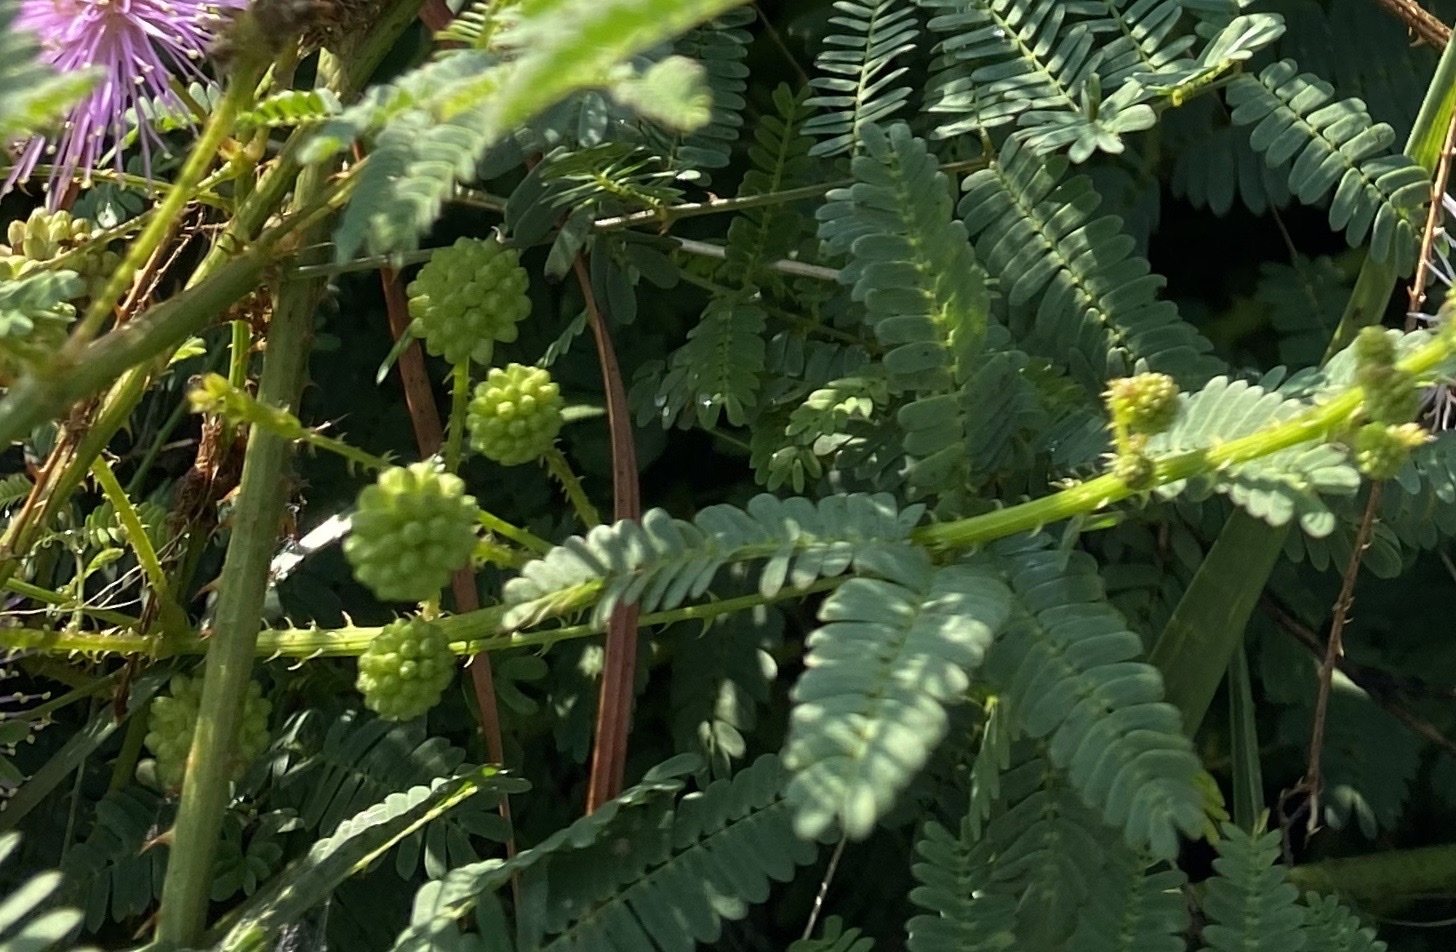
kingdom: Plantae
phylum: Tracheophyta
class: Magnoliopsida
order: Fabales
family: Fabaceae
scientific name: Fabaceae
